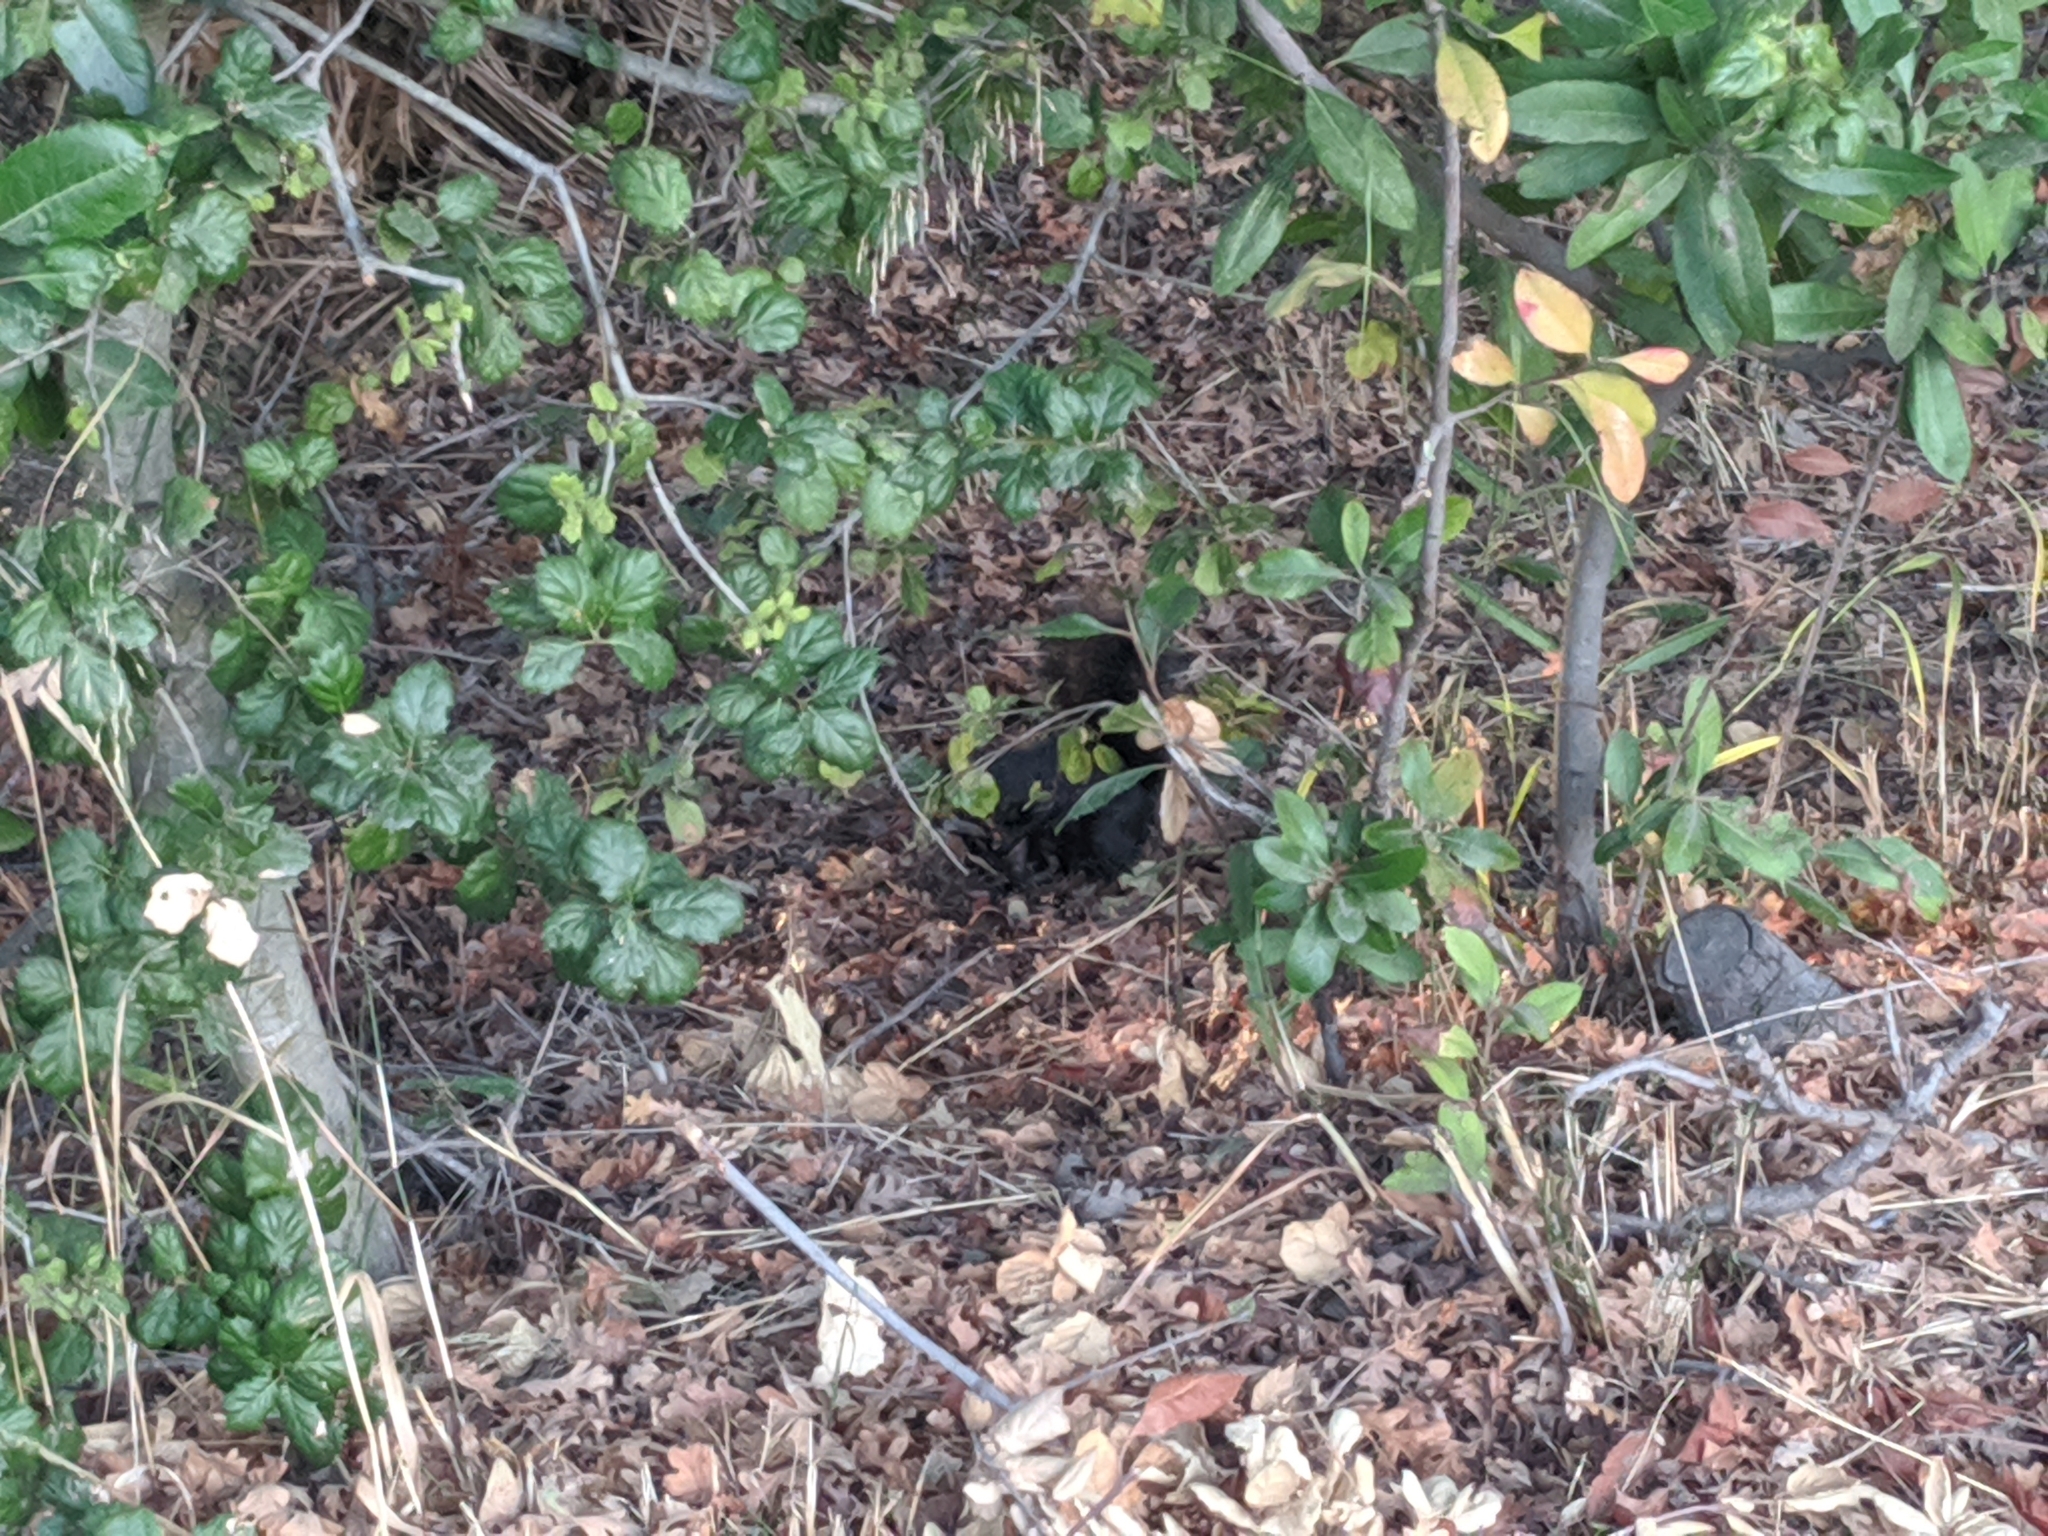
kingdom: Animalia
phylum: Chordata
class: Mammalia
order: Rodentia
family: Sciuridae
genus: Sciurus
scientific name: Sciurus carolinensis
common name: Eastern gray squirrel
